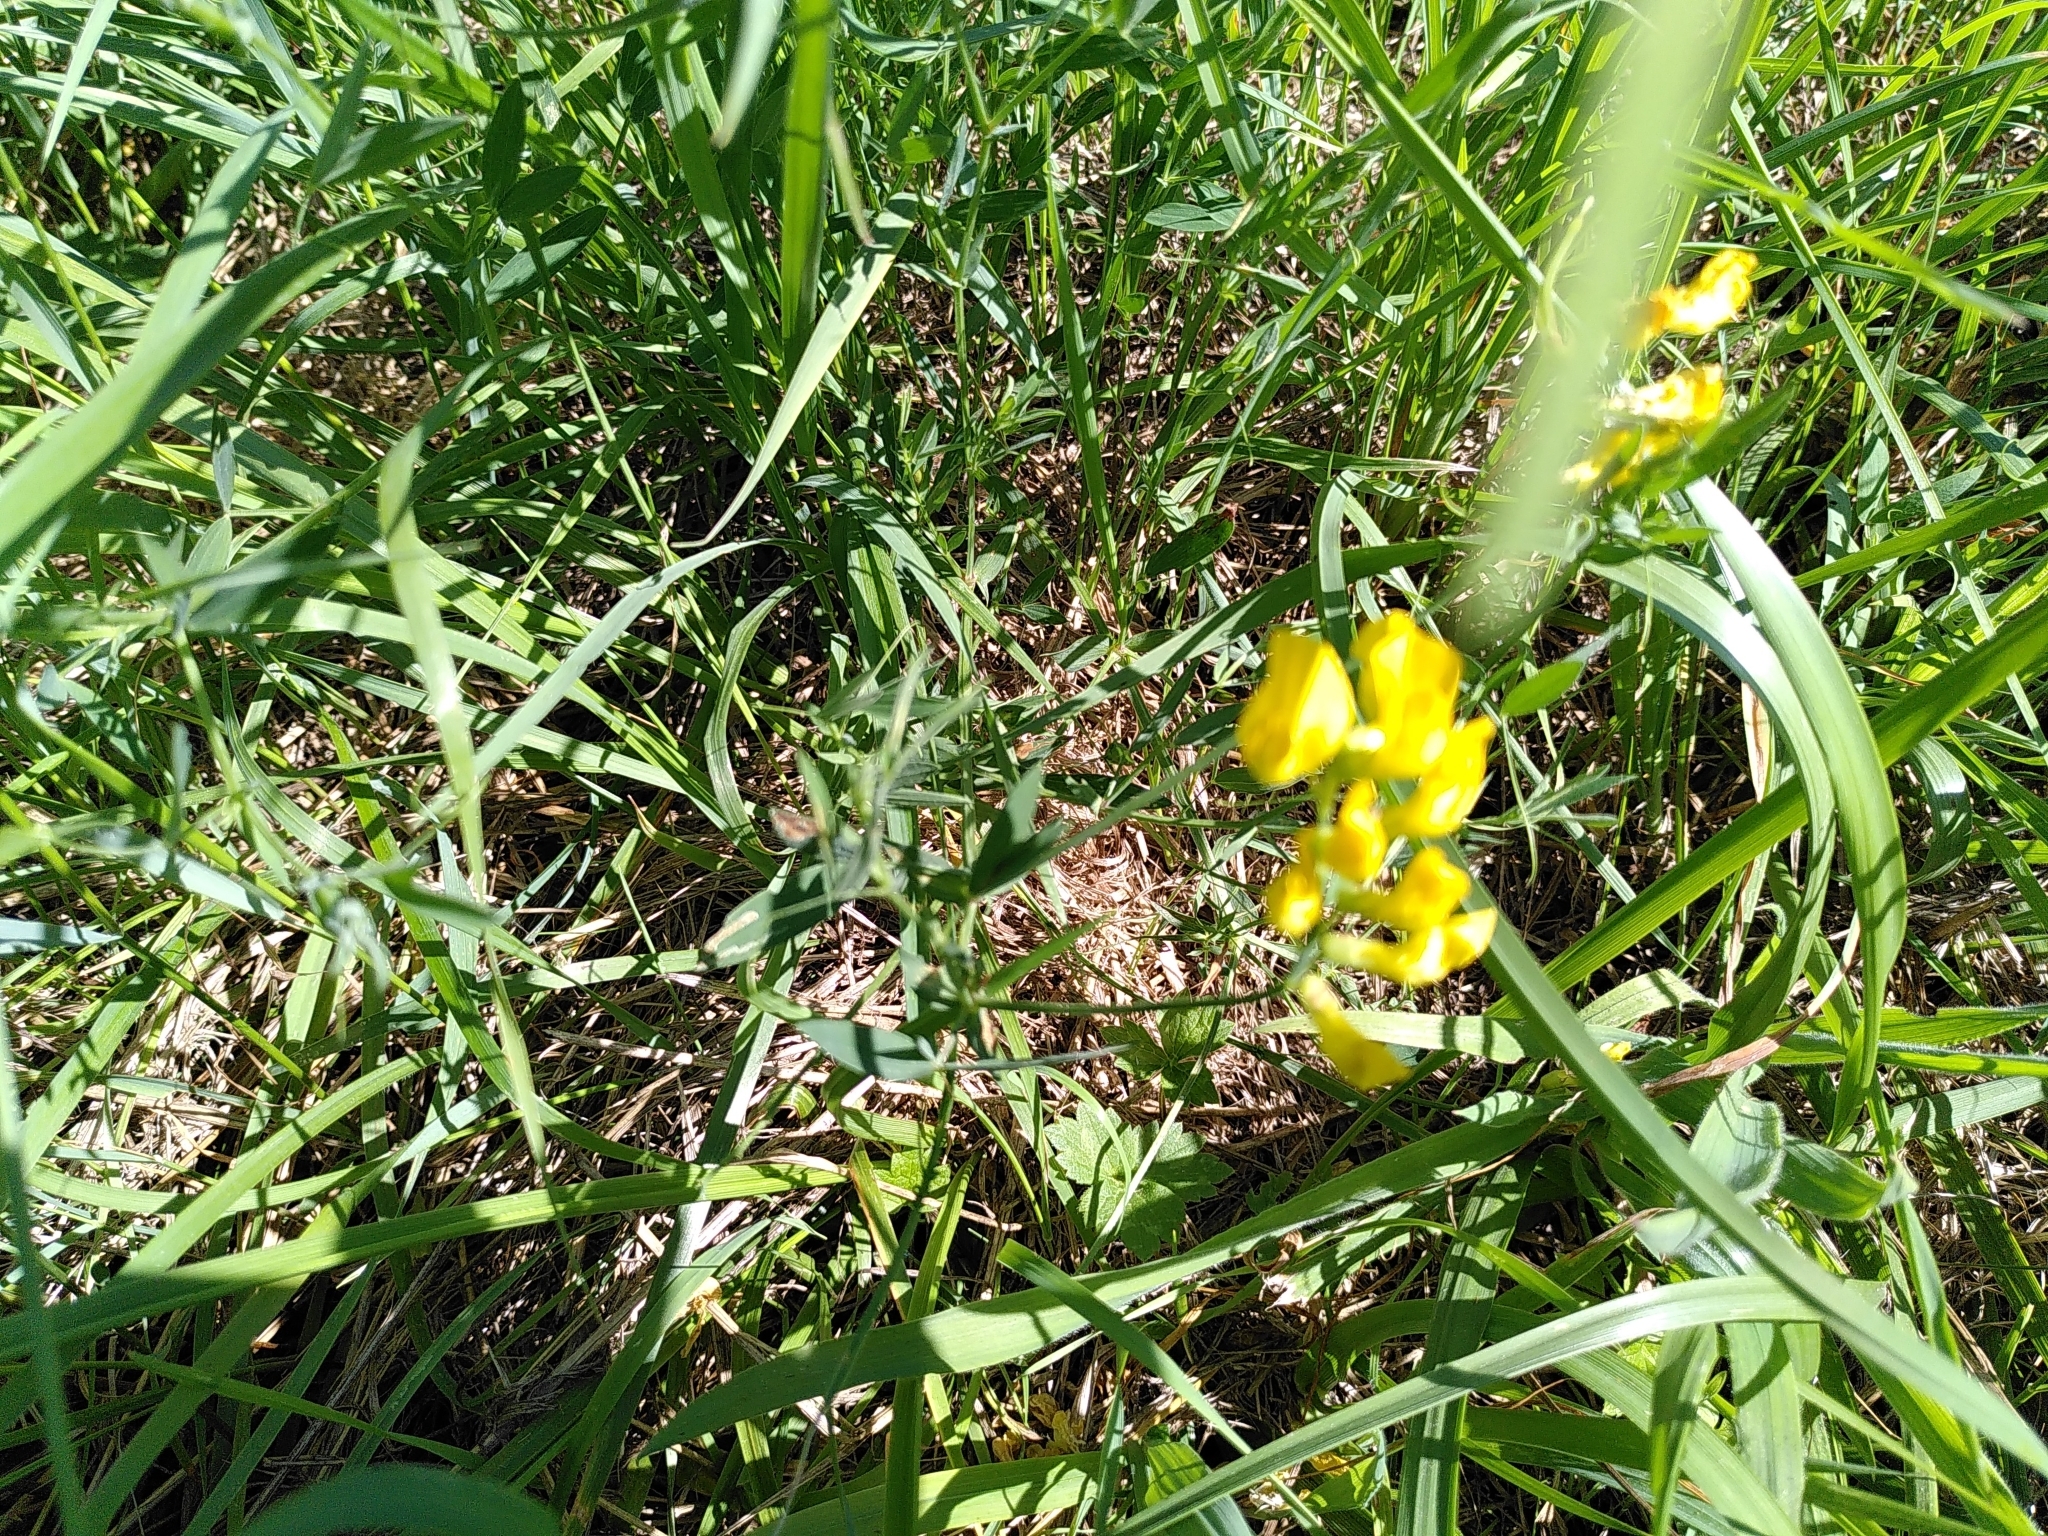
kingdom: Plantae
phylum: Tracheophyta
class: Magnoliopsida
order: Fabales
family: Fabaceae
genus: Lathyrus
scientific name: Lathyrus pratensis
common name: Meadow vetchling
